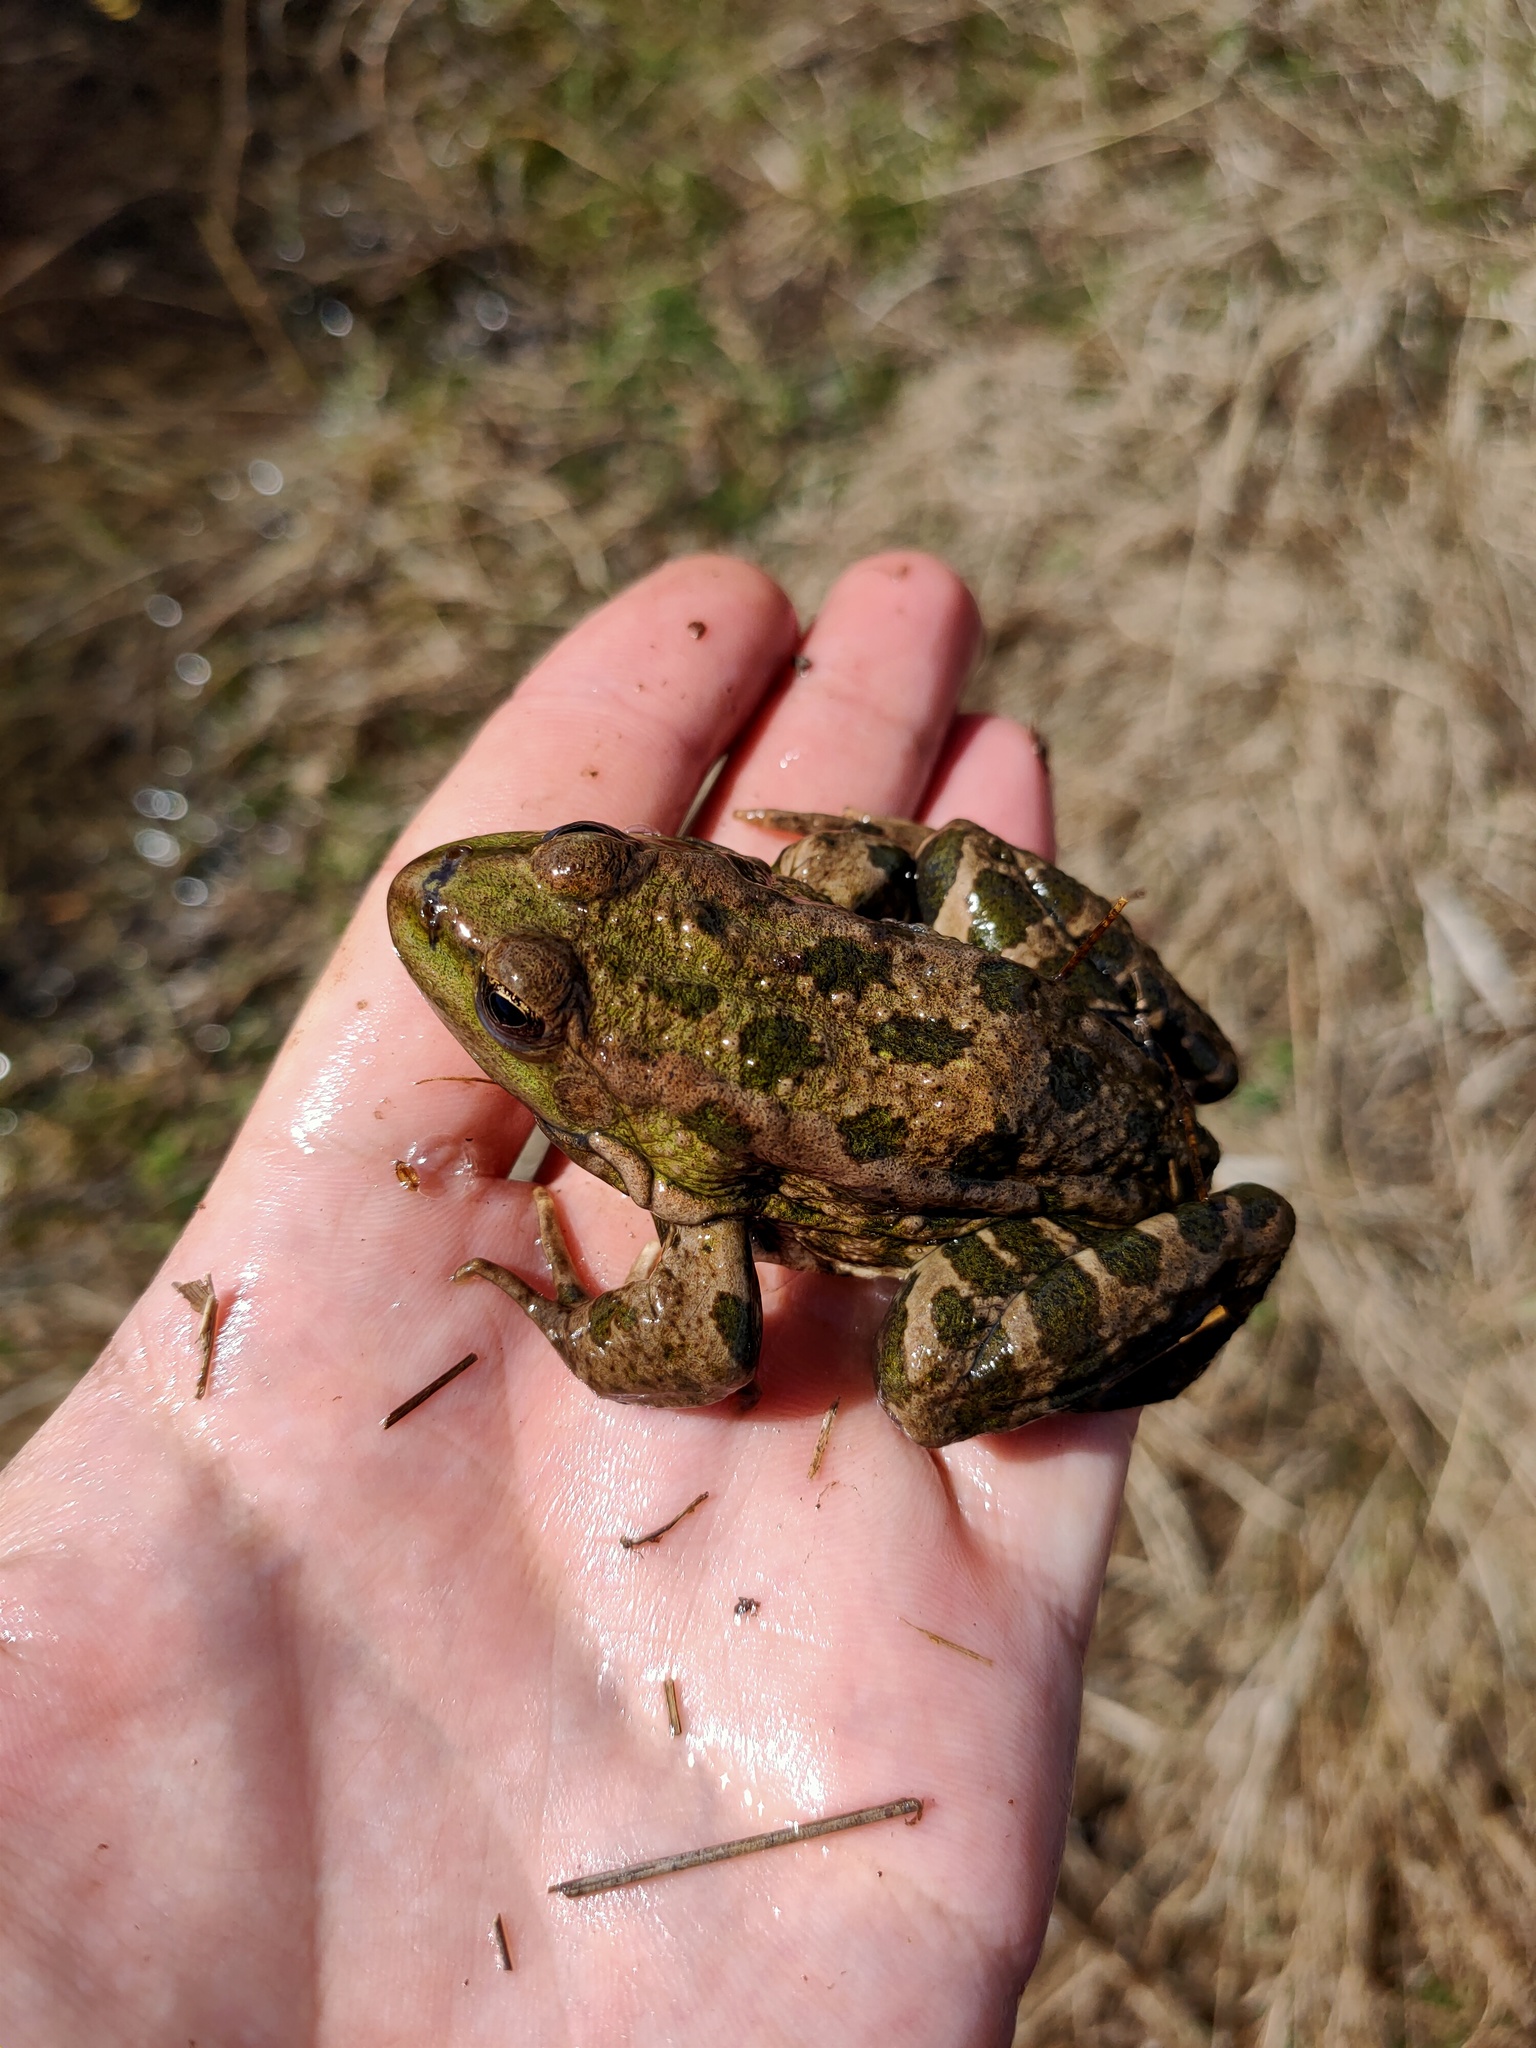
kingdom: Animalia
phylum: Chordata
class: Amphibia
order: Anura
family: Ranidae
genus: Pelophylax
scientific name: Pelophylax ridibundus
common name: Marsh frog
